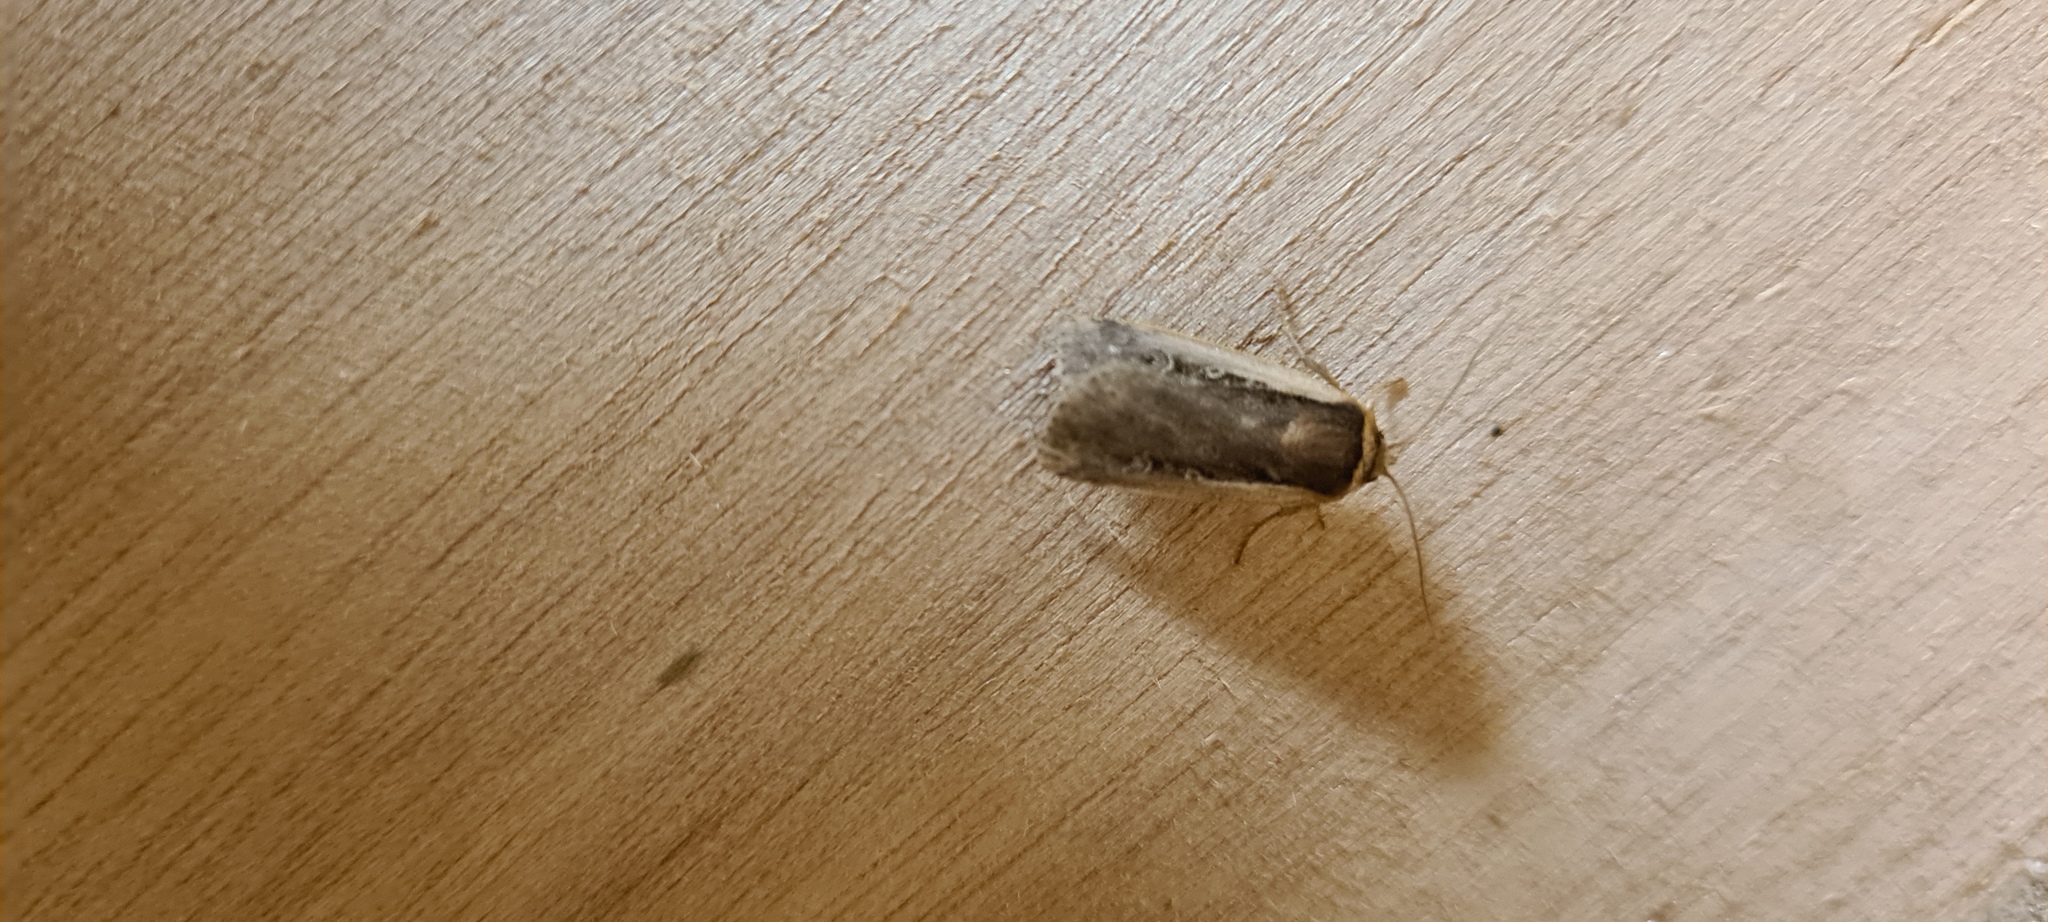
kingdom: Animalia
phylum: Arthropoda
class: Insecta
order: Lepidoptera
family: Noctuidae
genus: Ochropleura
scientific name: Ochropleura plecta
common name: Flame shoulder
